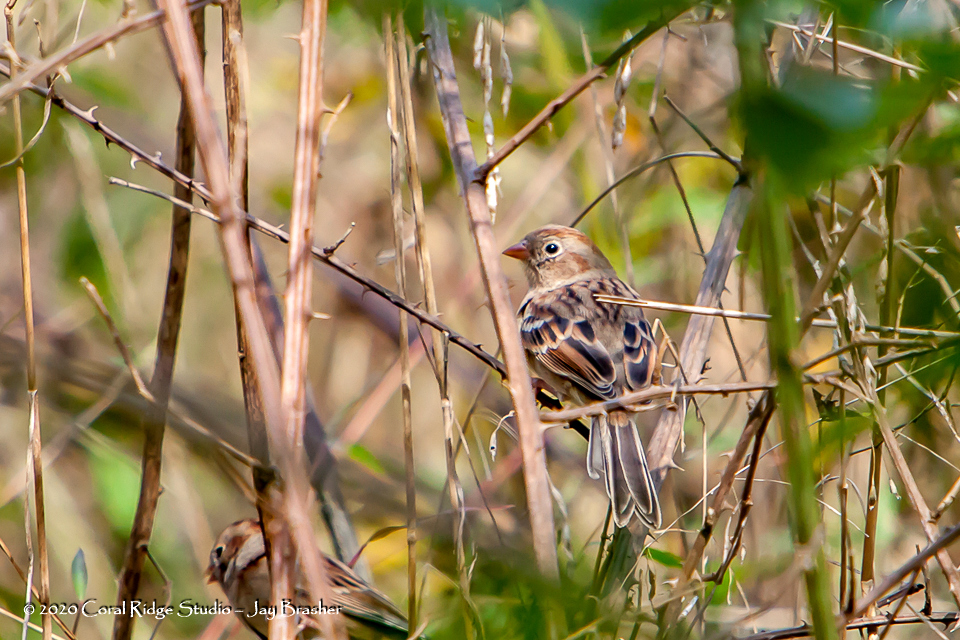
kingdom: Animalia
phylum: Chordata
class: Aves
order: Passeriformes
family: Passerellidae
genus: Spizella
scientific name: Spizella pusilla
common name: Field sparrow
